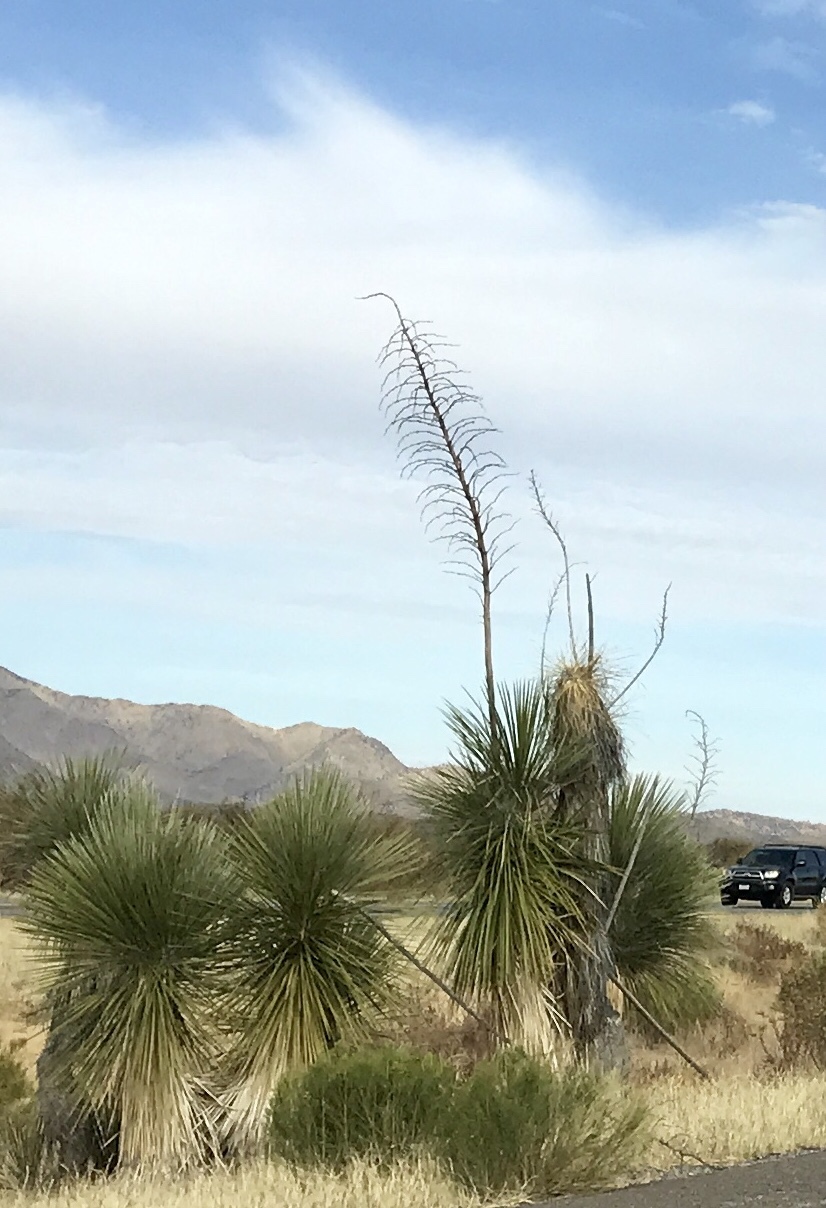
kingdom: Plantae
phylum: Tracheophyta
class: Liliopsida
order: Asparagales
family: Asparagaceae
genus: Yucca
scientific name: Yucca elata
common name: Palmella
